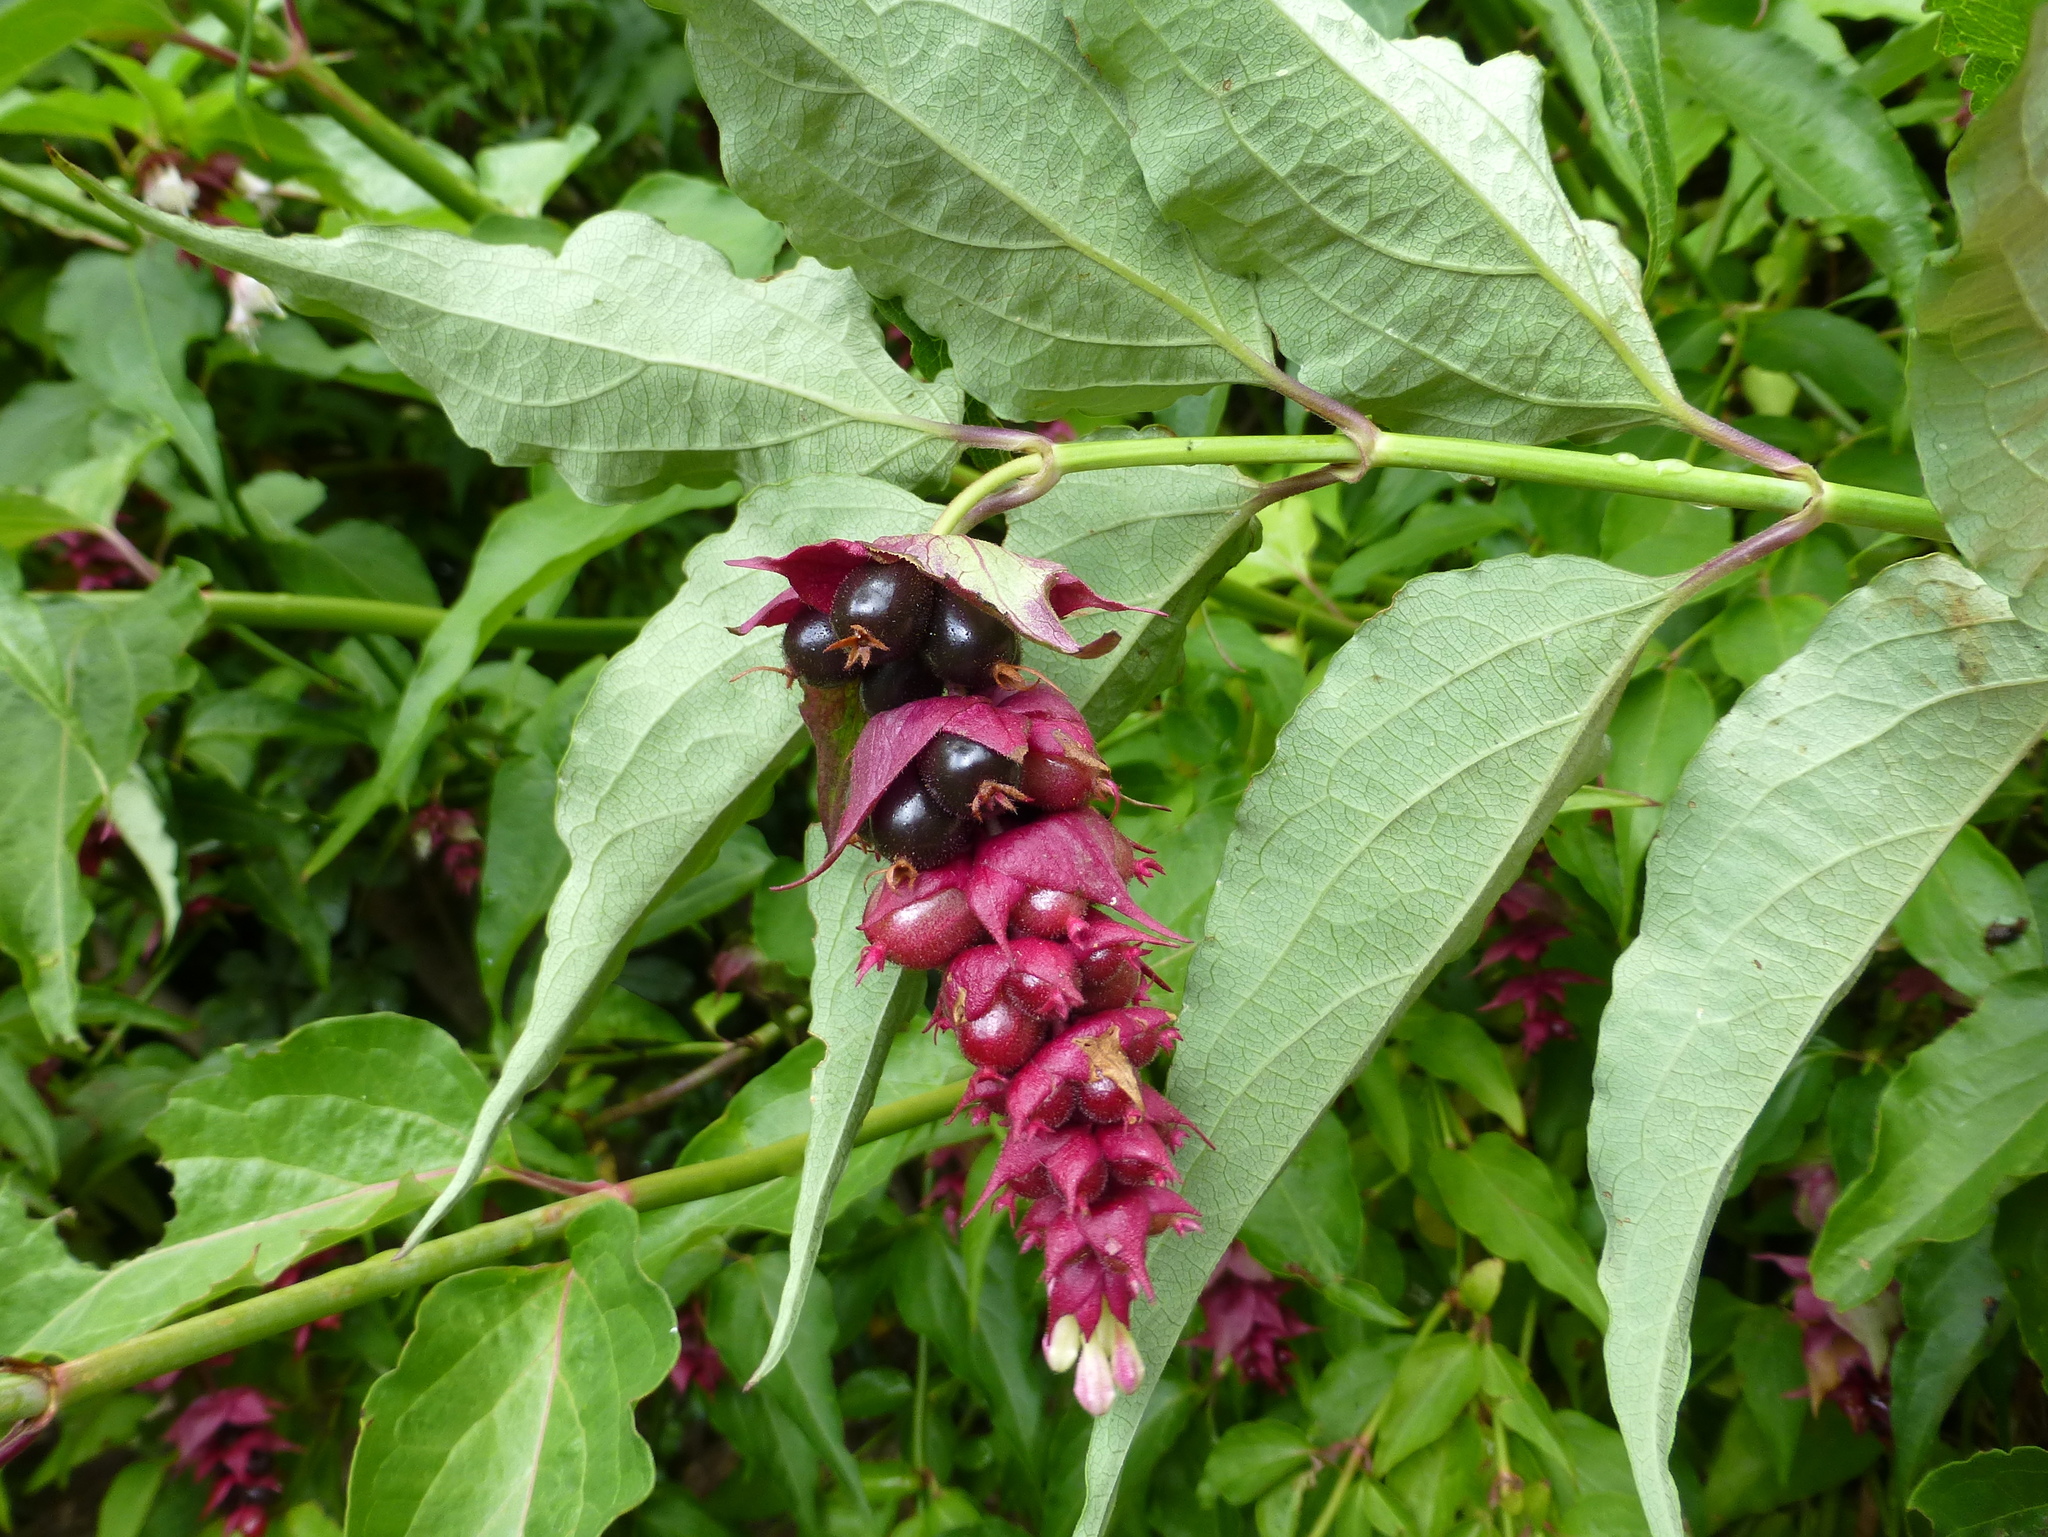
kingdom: Plantae
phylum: Tracheophyta
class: Magnoliopsida
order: Dipsacales
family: Caprifoliaceae
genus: Leycesteria
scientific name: Leycesteria formosa
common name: Himalayan honeysuckle
